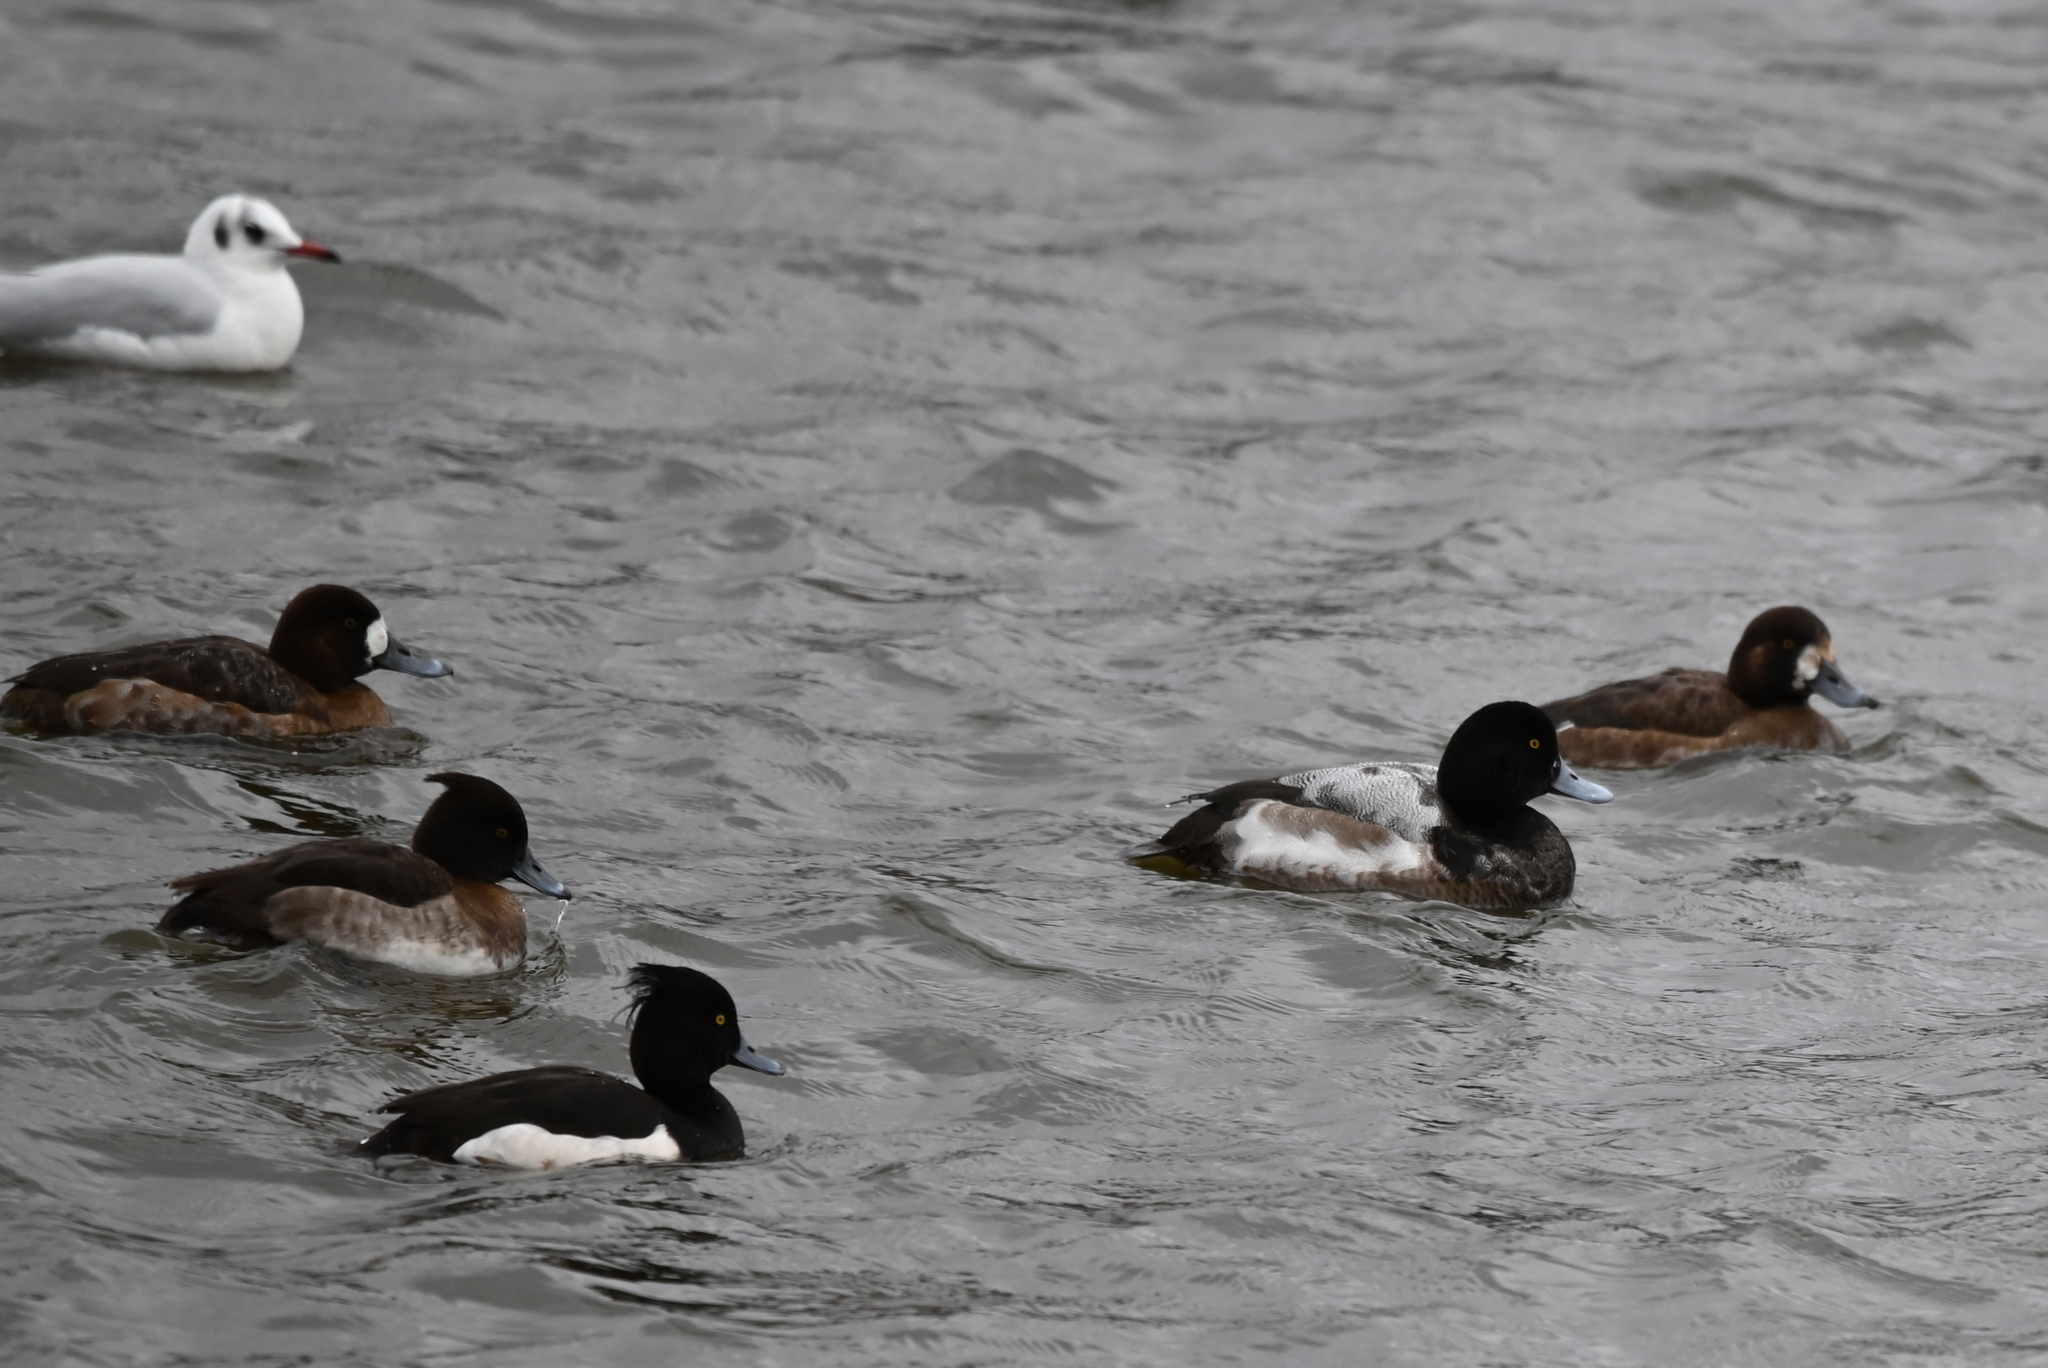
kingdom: Animalia
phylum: Chordata
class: Aves
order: Anseriformes
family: Anatidae
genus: Aythya
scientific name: Aythya marila
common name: Greater scaup
